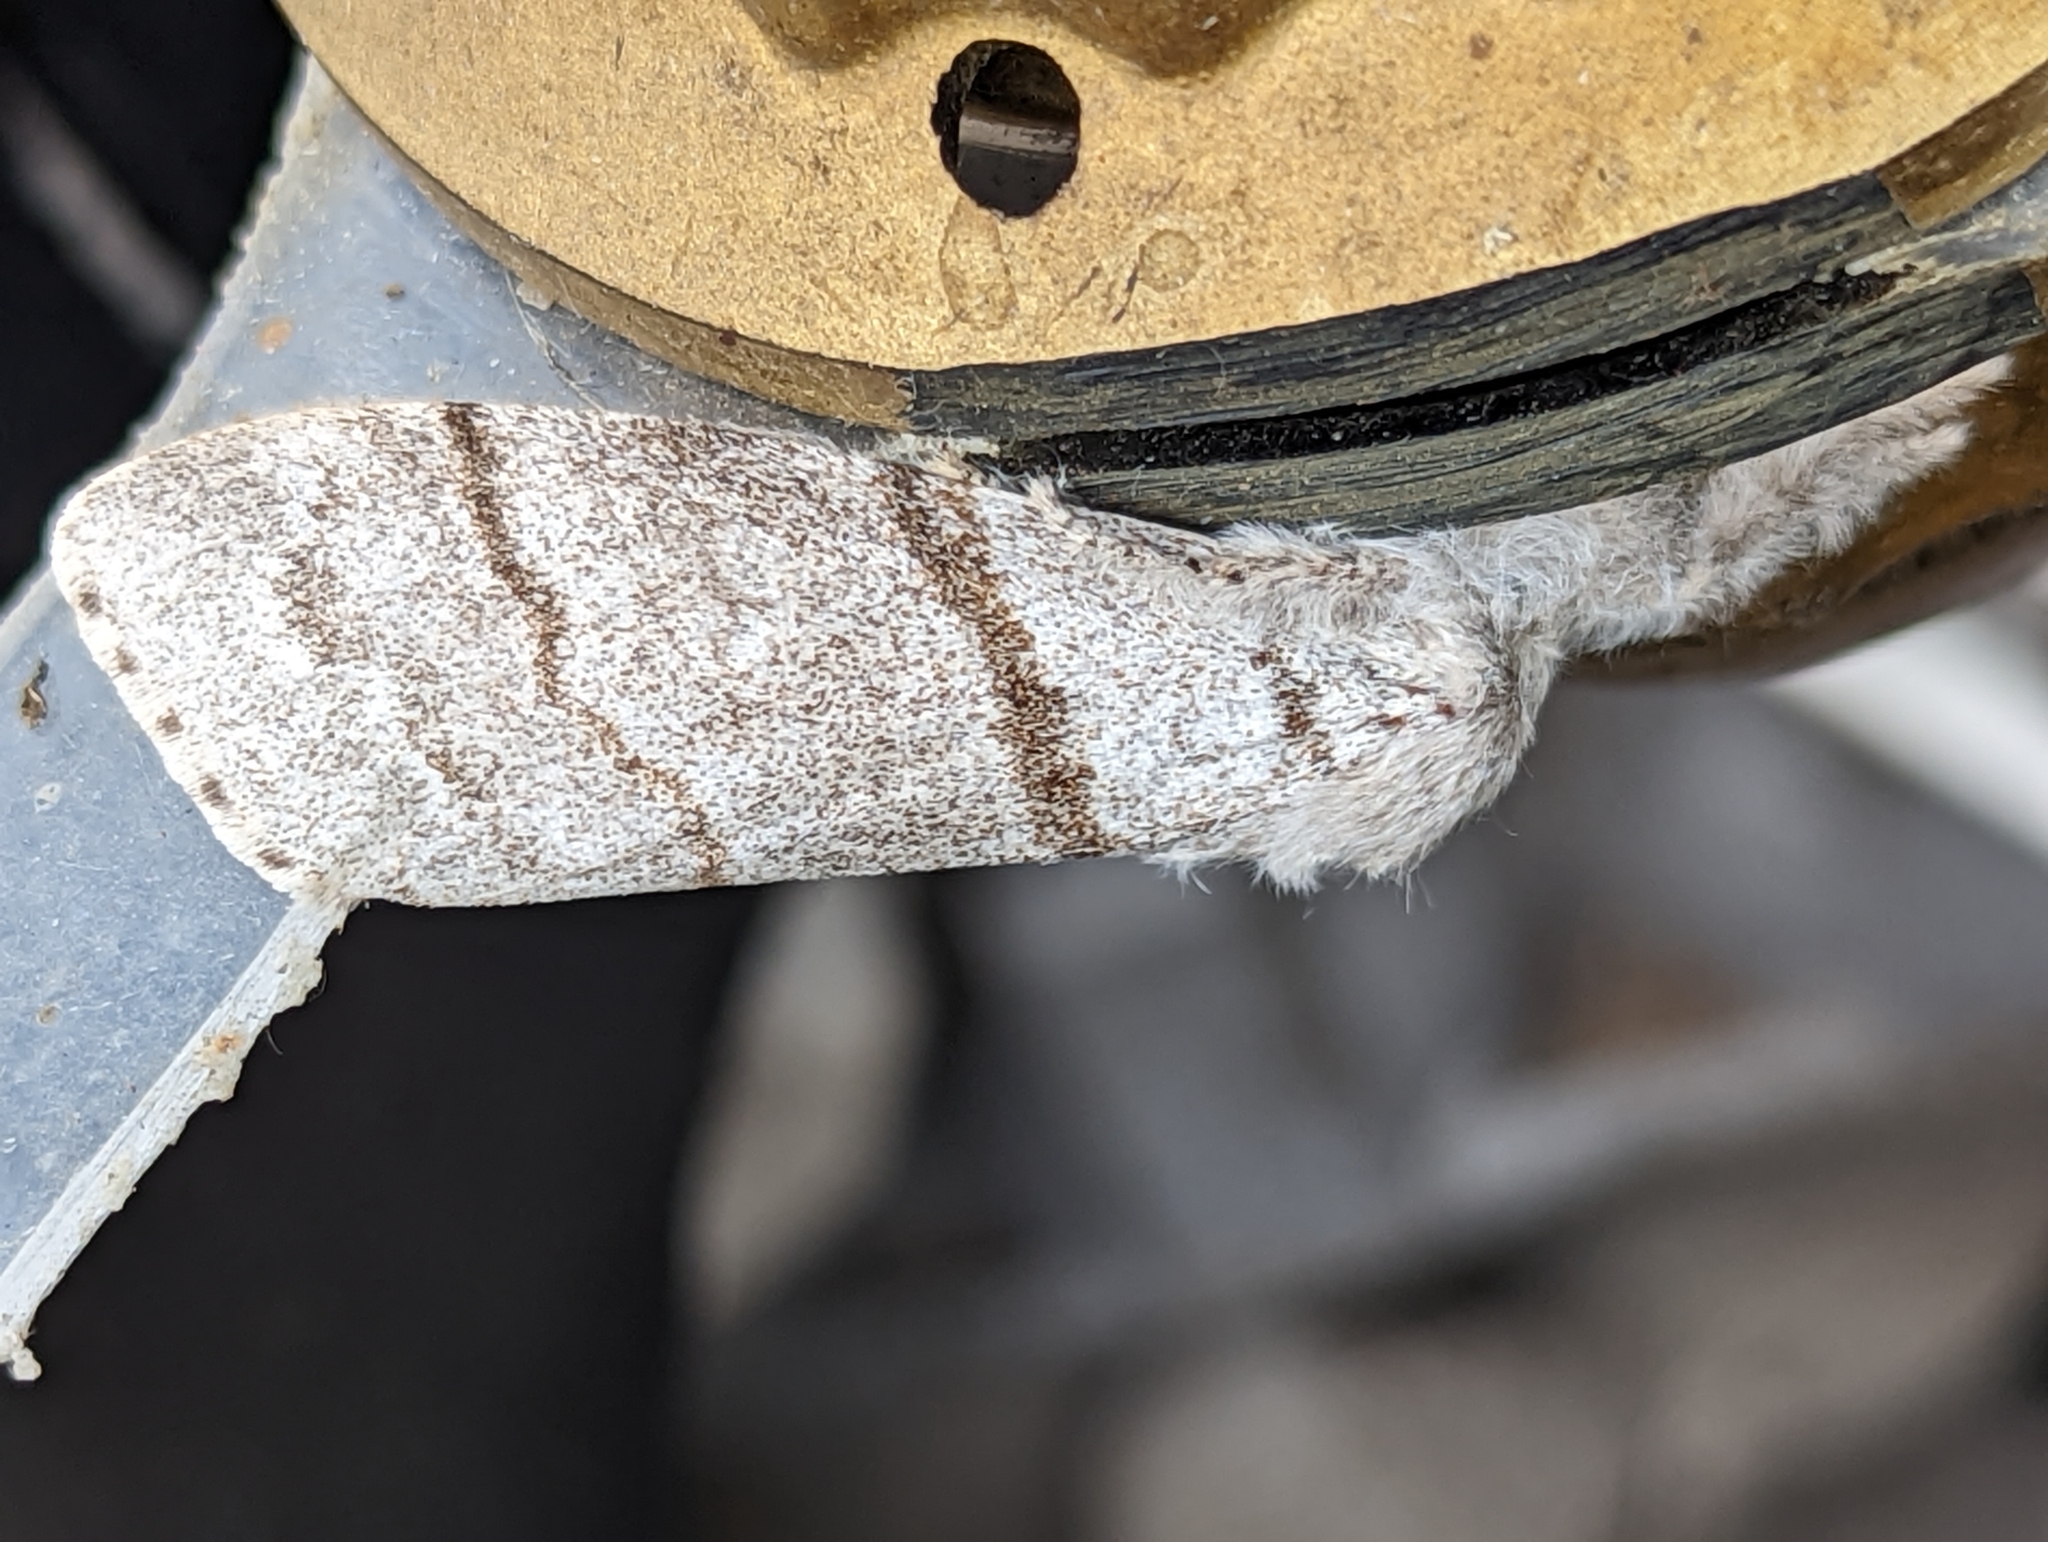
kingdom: Animalia
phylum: Arthropoda
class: Insecta
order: Lepidoptera
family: Erebidae
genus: Calliteara
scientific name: Calliteara pudibunda
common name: Pale tussock
